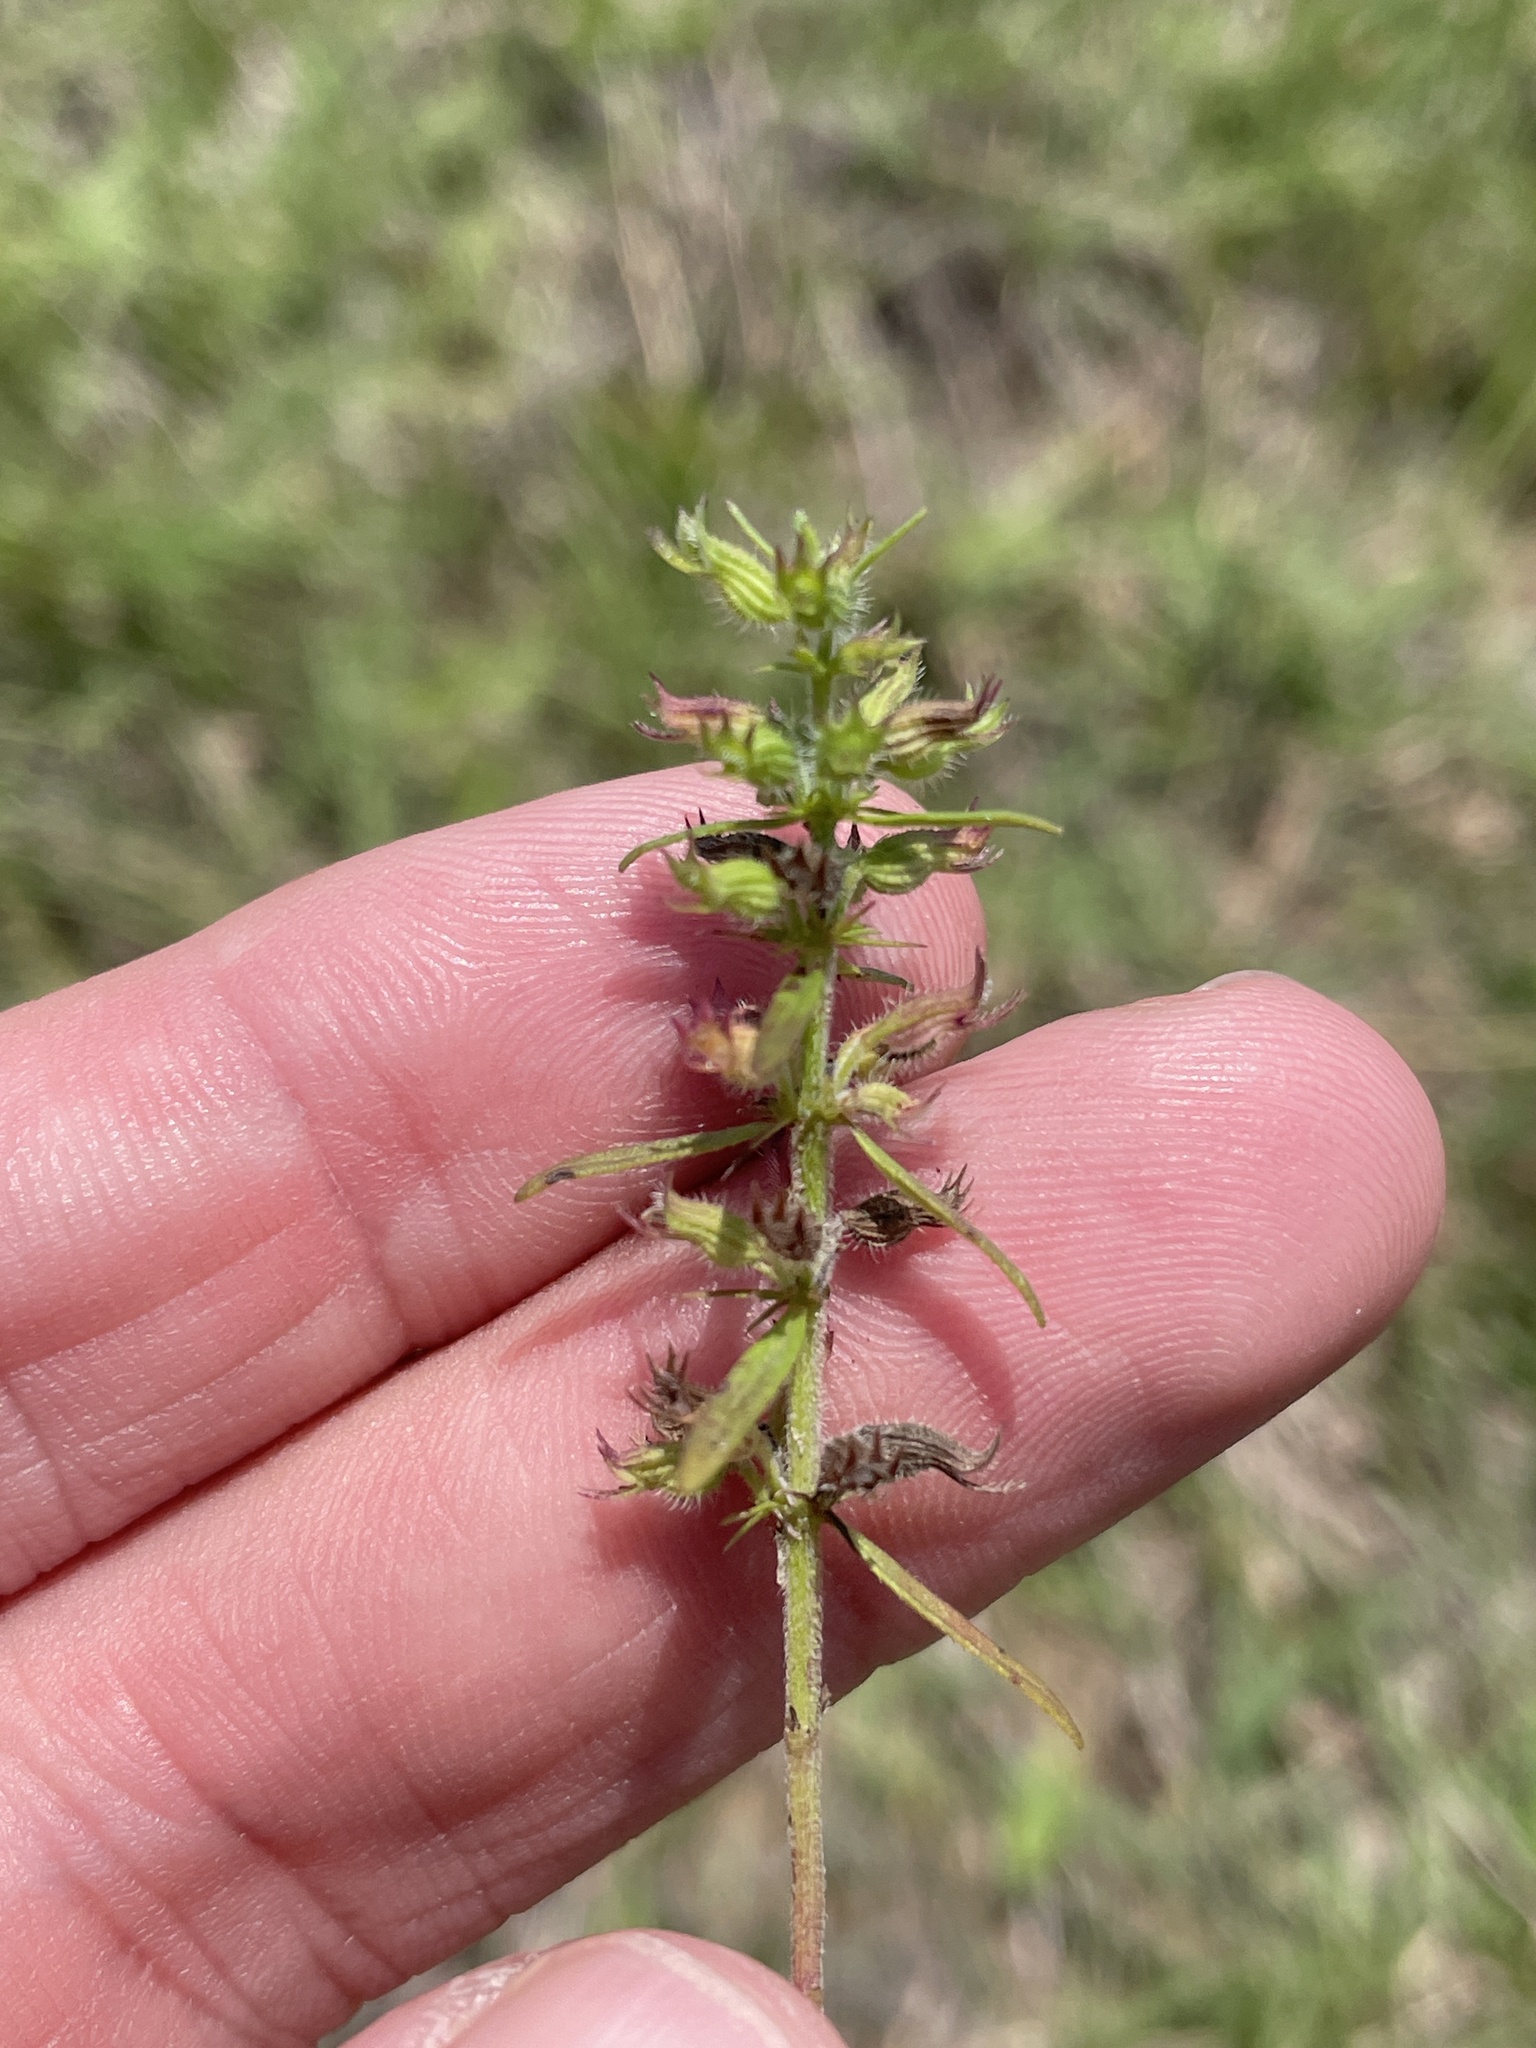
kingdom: Plantae
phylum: Tracheophyta
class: Magnoliopsida
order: Lamiales
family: Lamiaceae
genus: Hedeoma
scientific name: Hedeoma hispida
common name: Mock pennyroyal
